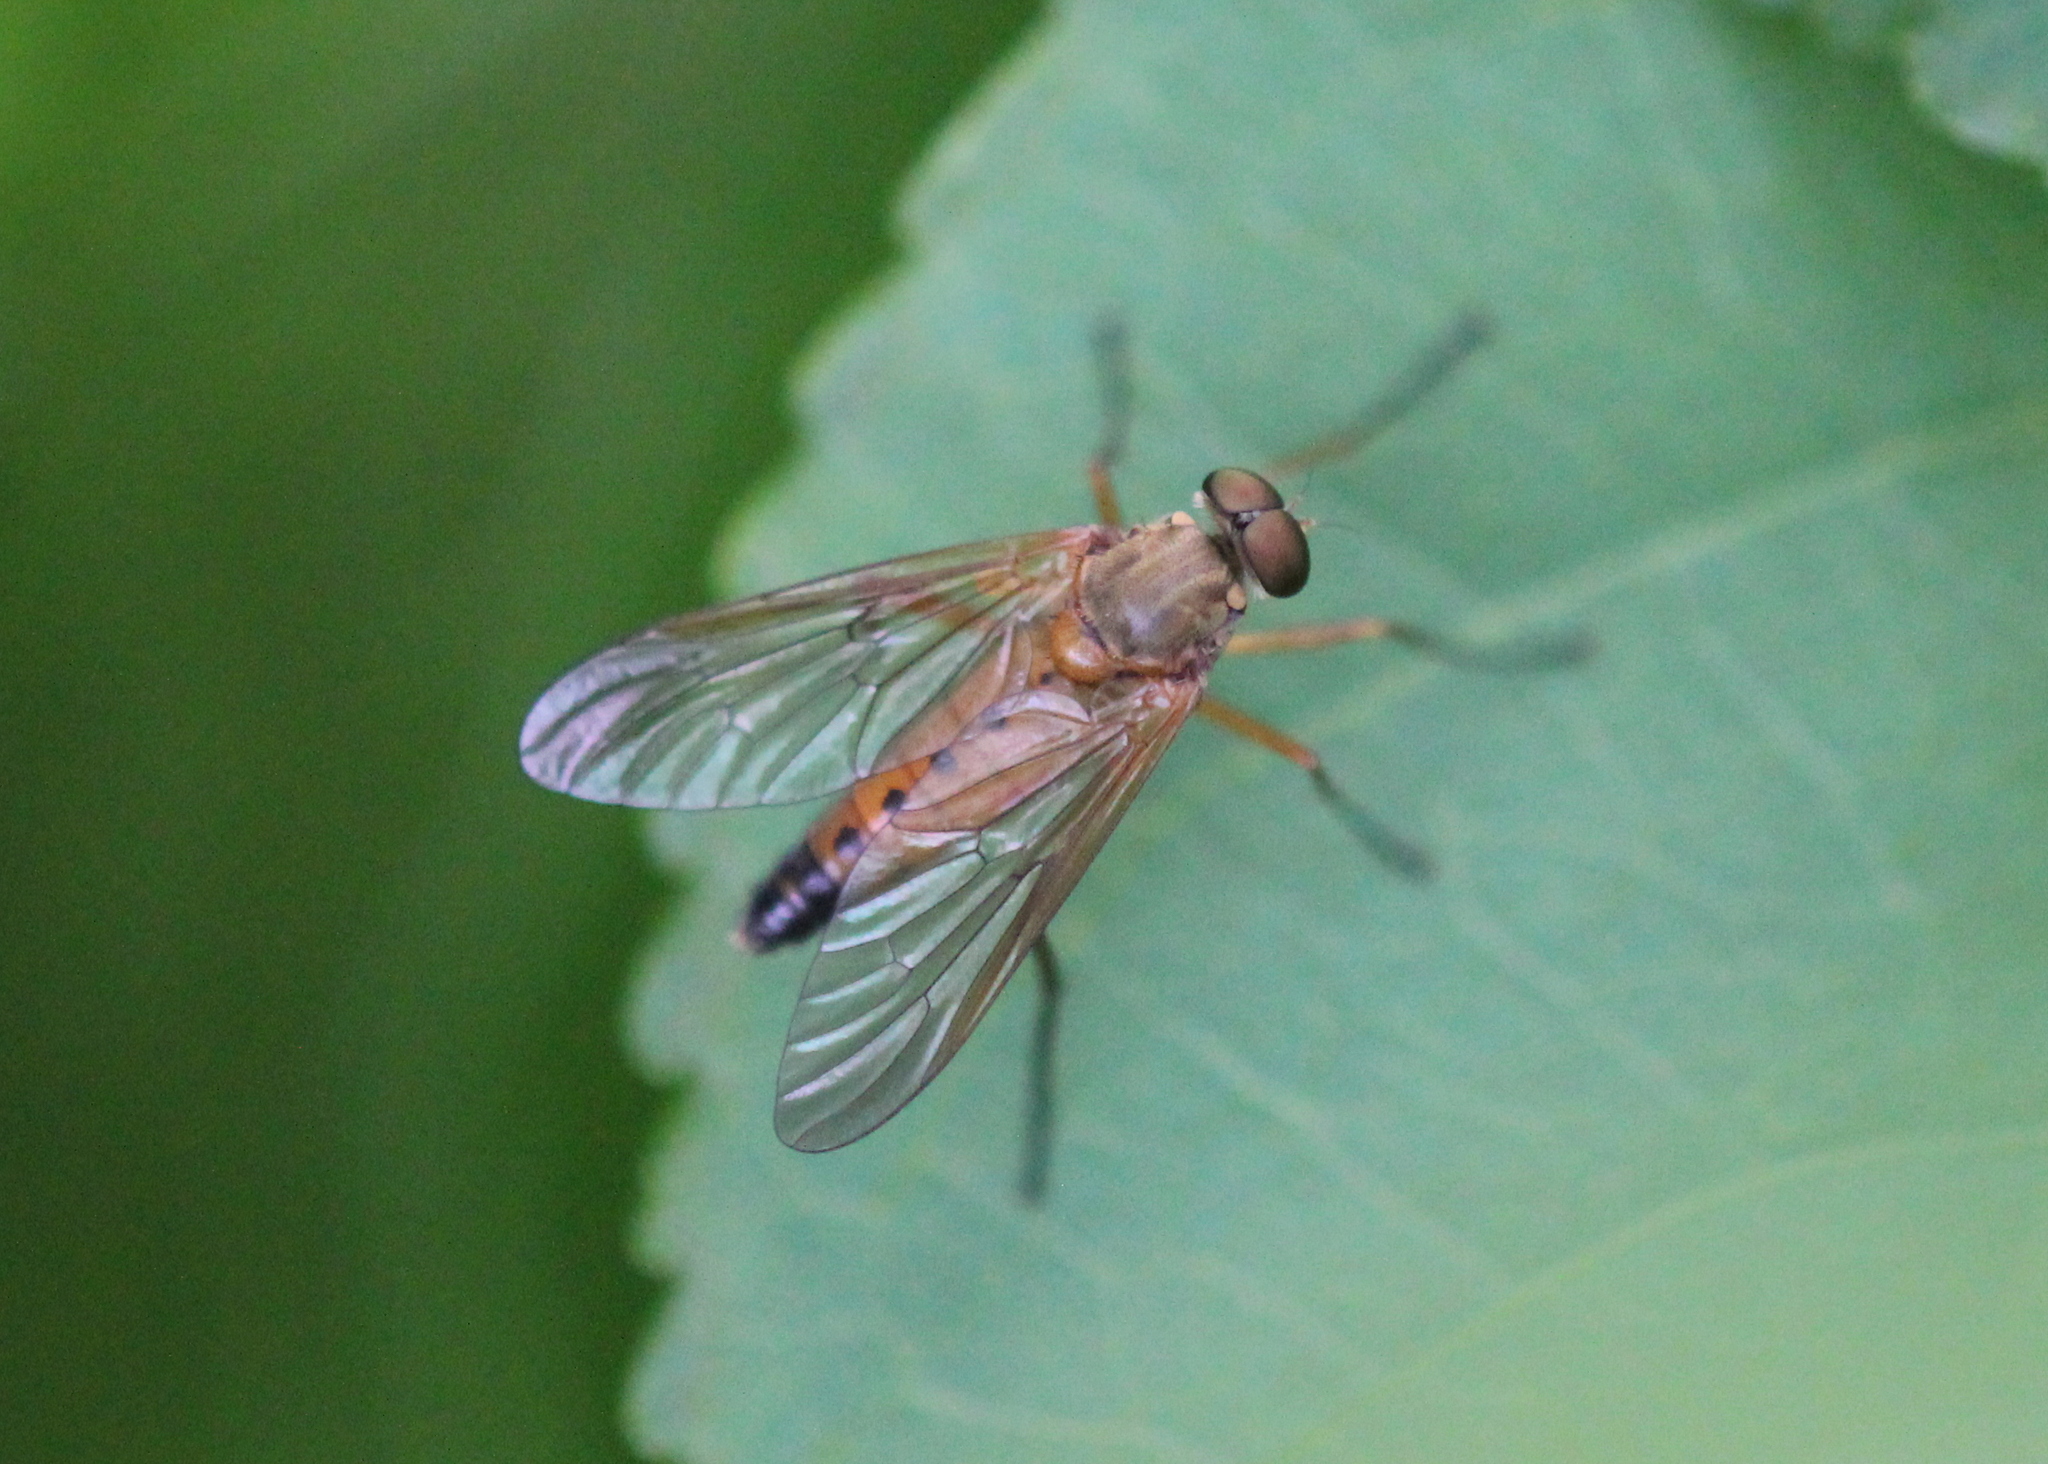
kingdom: Animalia
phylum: Arthropoda
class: Insecta
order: Diptera
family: Rhagionidae
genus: Rhagio
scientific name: Rhagio tringaria
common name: Marsh snipefly
